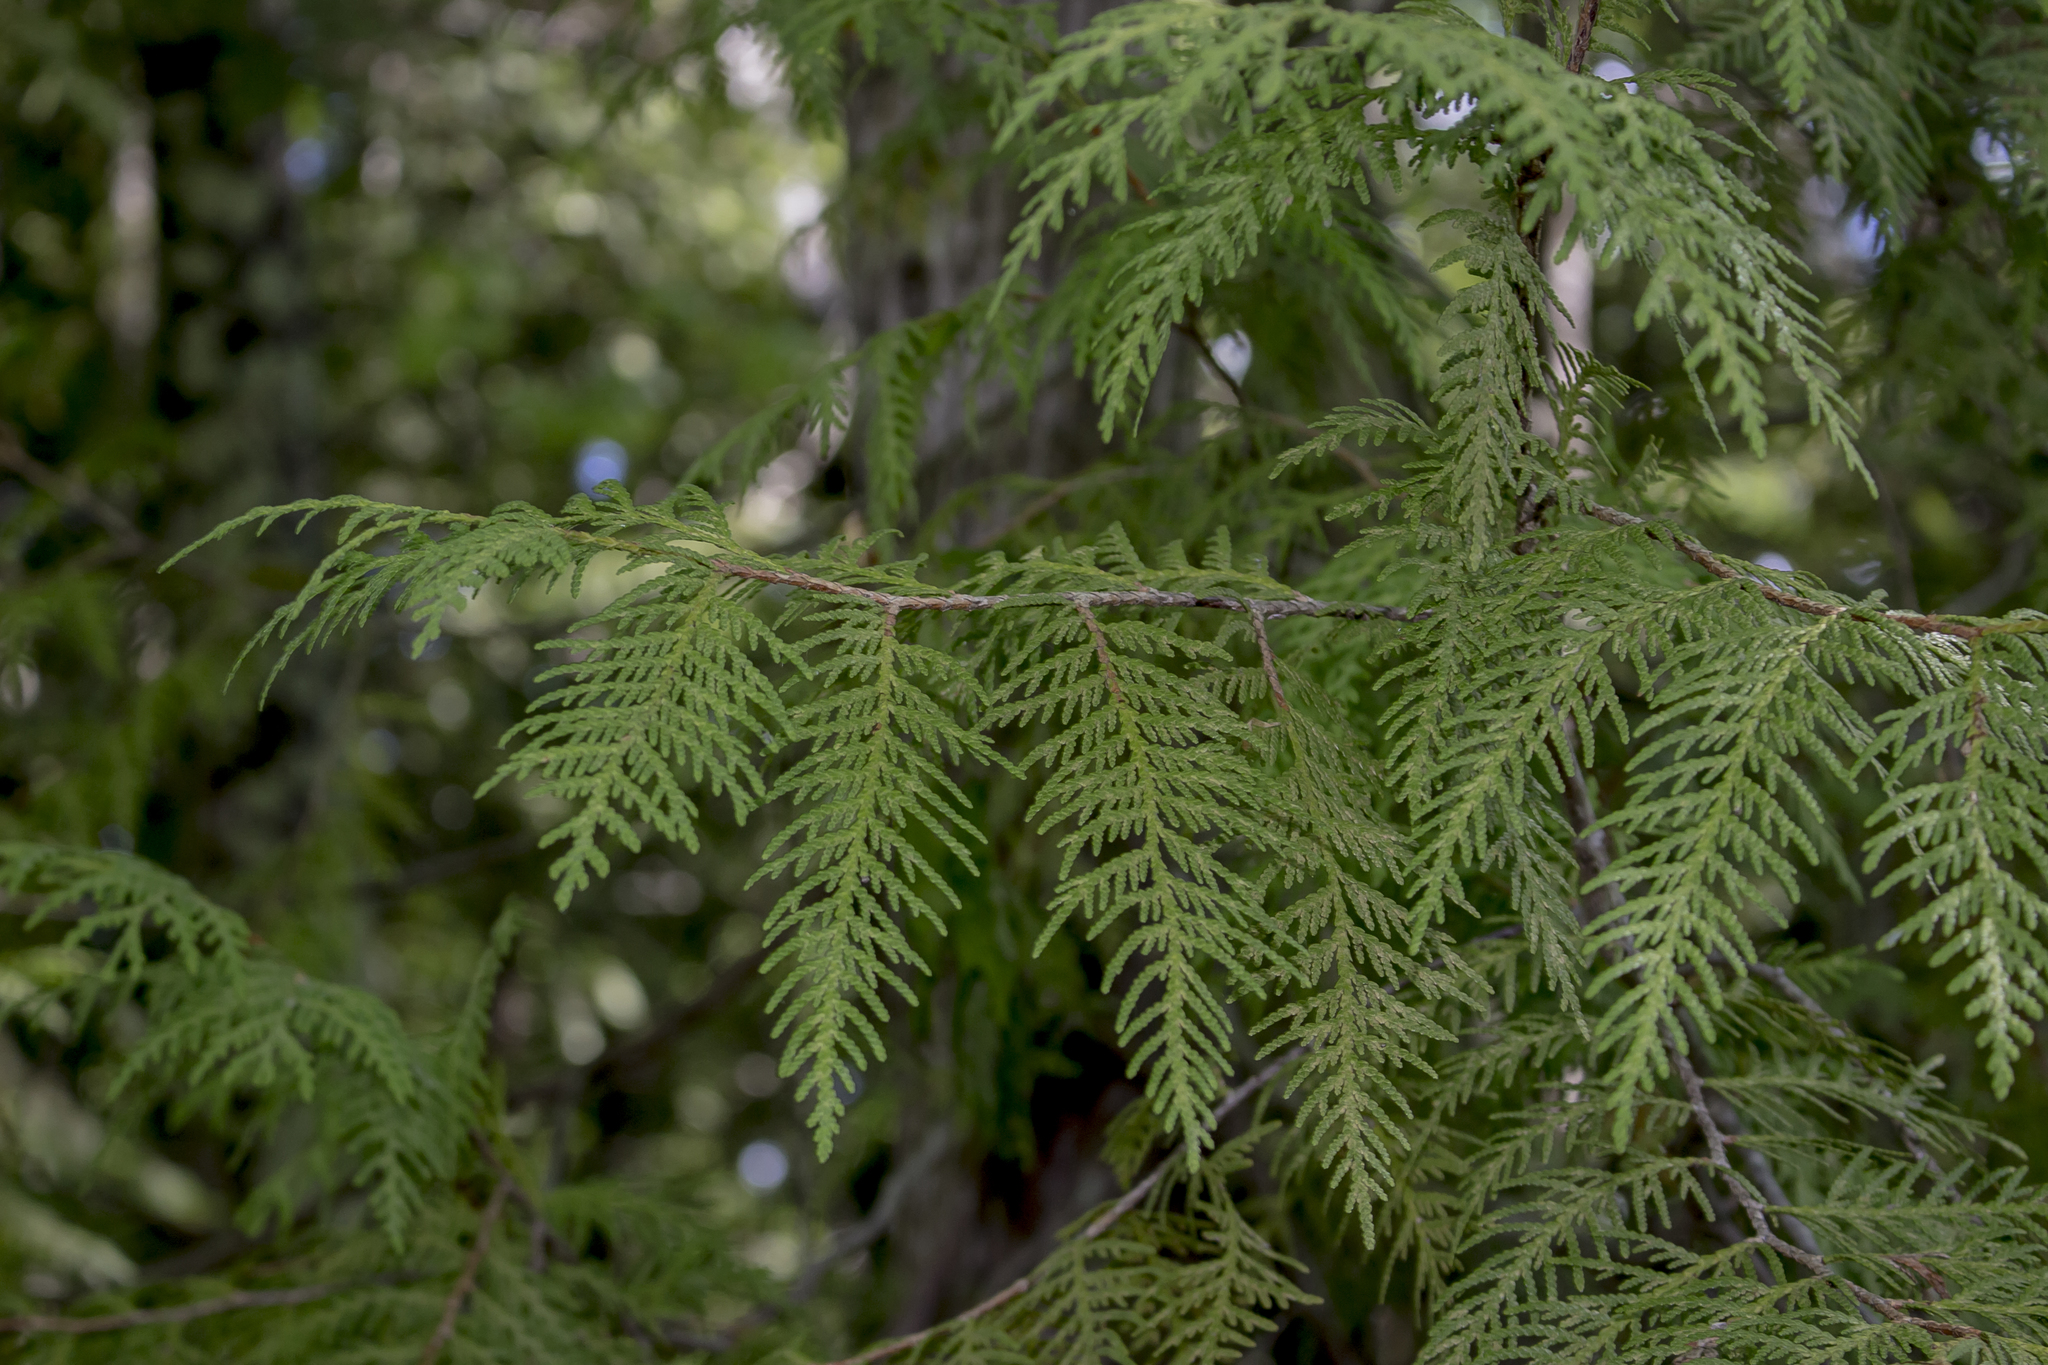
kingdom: Plantae
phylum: Tracheophyta
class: Pinopsida
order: Pinales
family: Cupressaceae
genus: Thuja
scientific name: Thuja occidentalis
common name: Northern white-cedar
